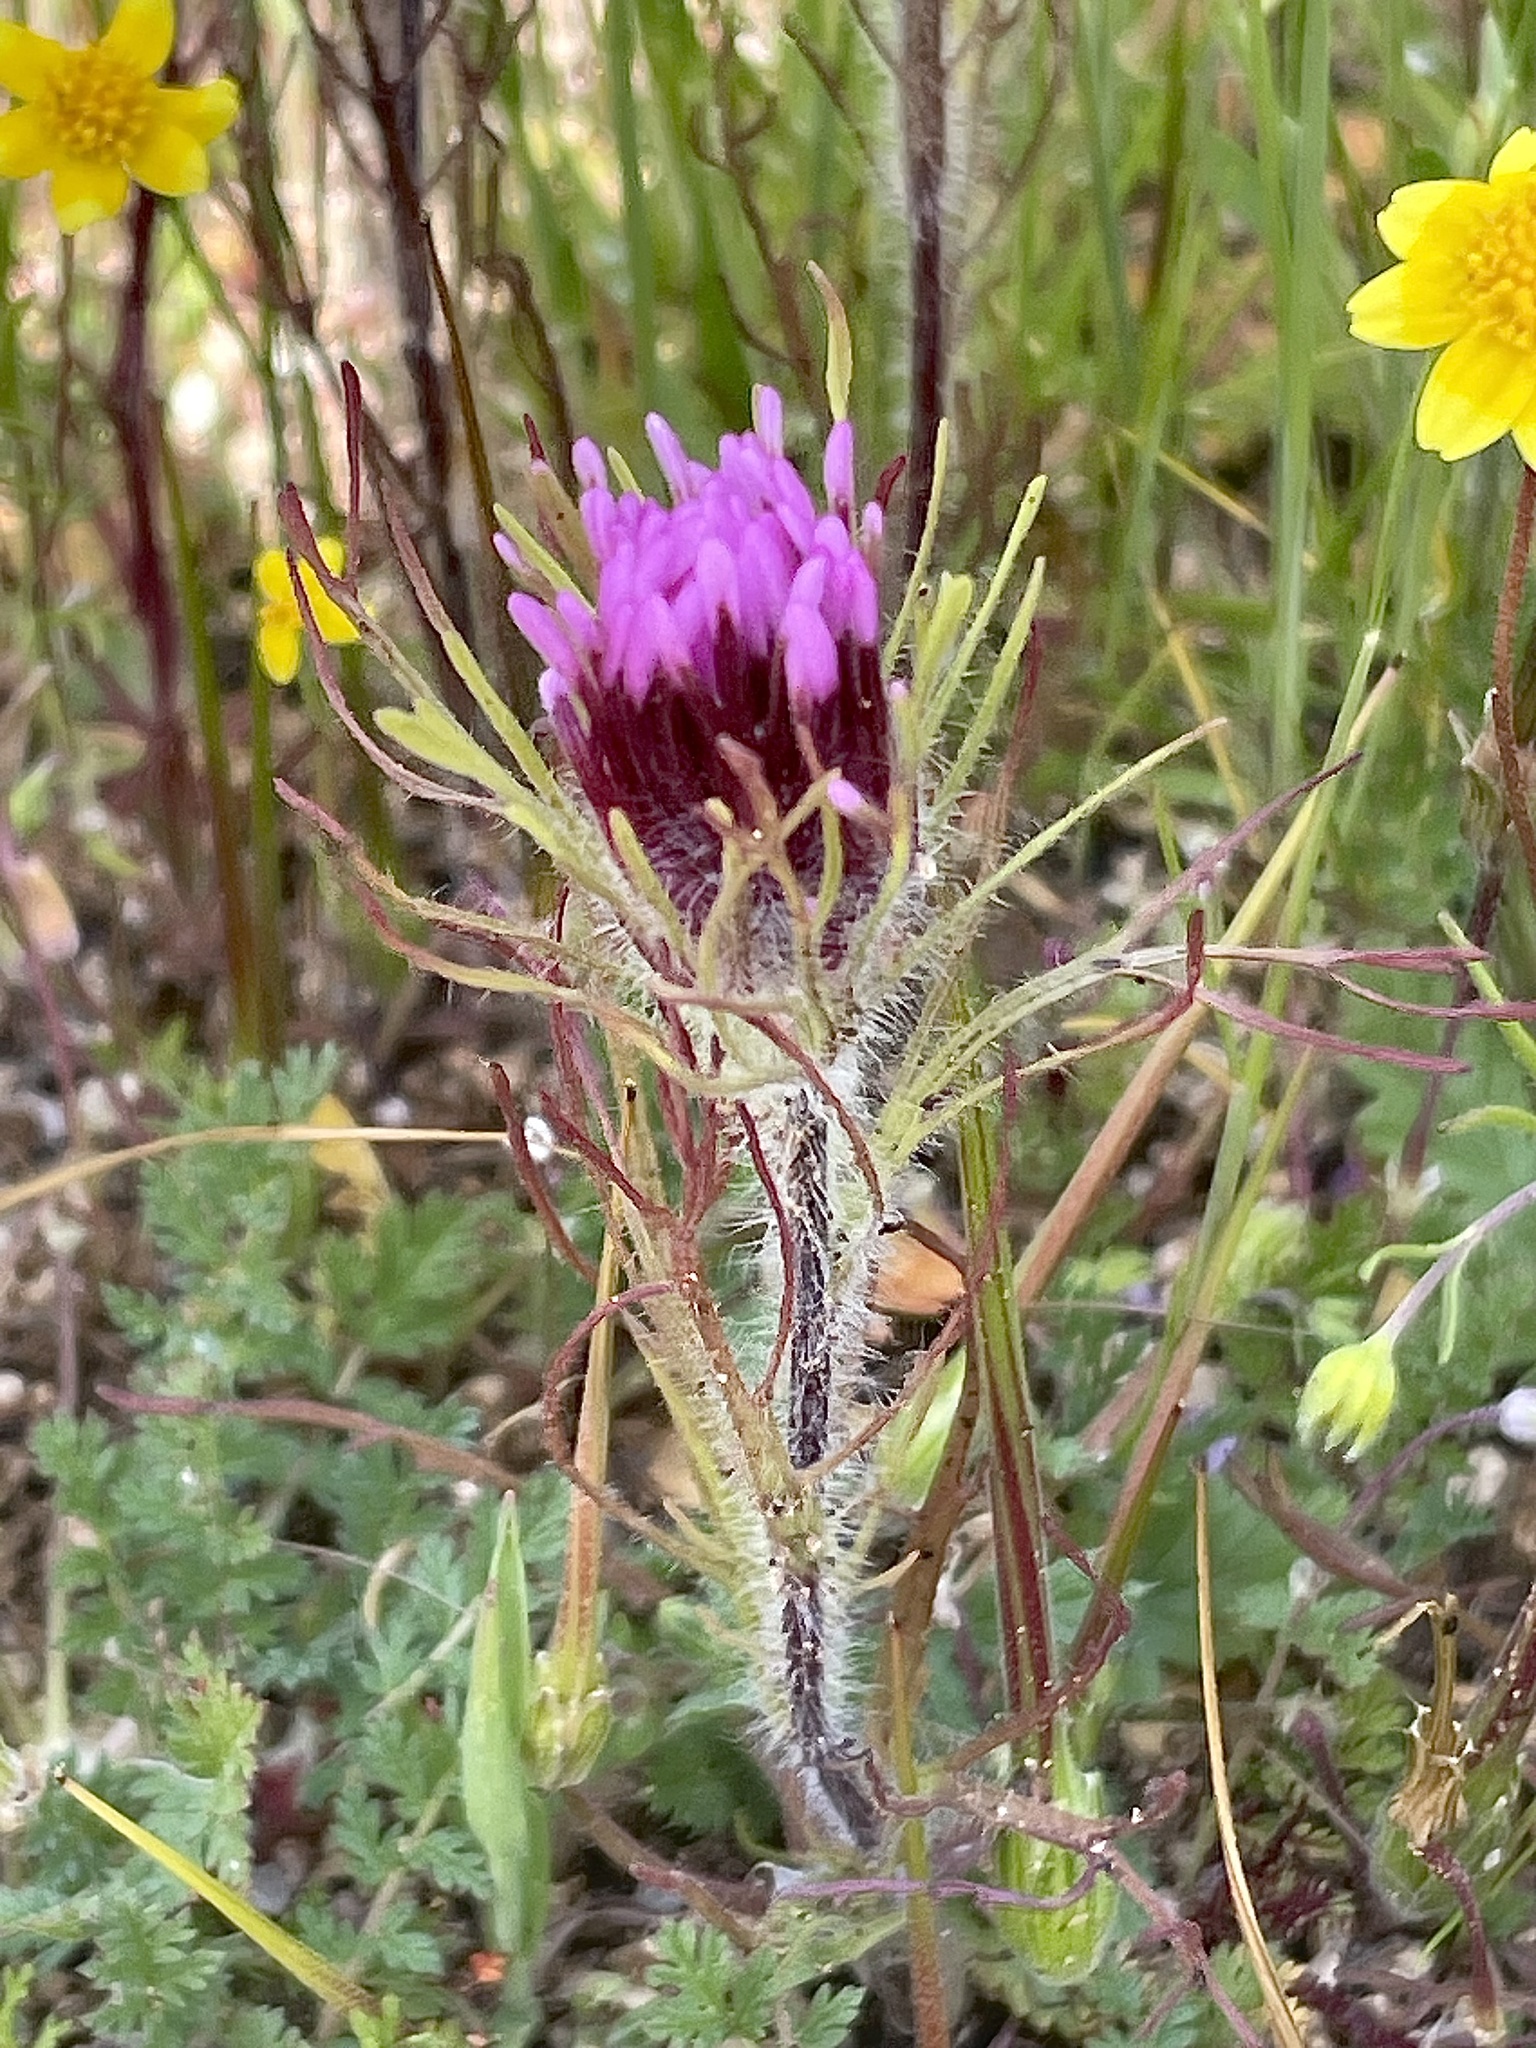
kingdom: Plantae
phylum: Tracheophyta
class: Magnoliopsida
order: Lamiales
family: Orobanchaceae
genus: Castilleja
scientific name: Castilleja exserta
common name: Purple owl-clover
